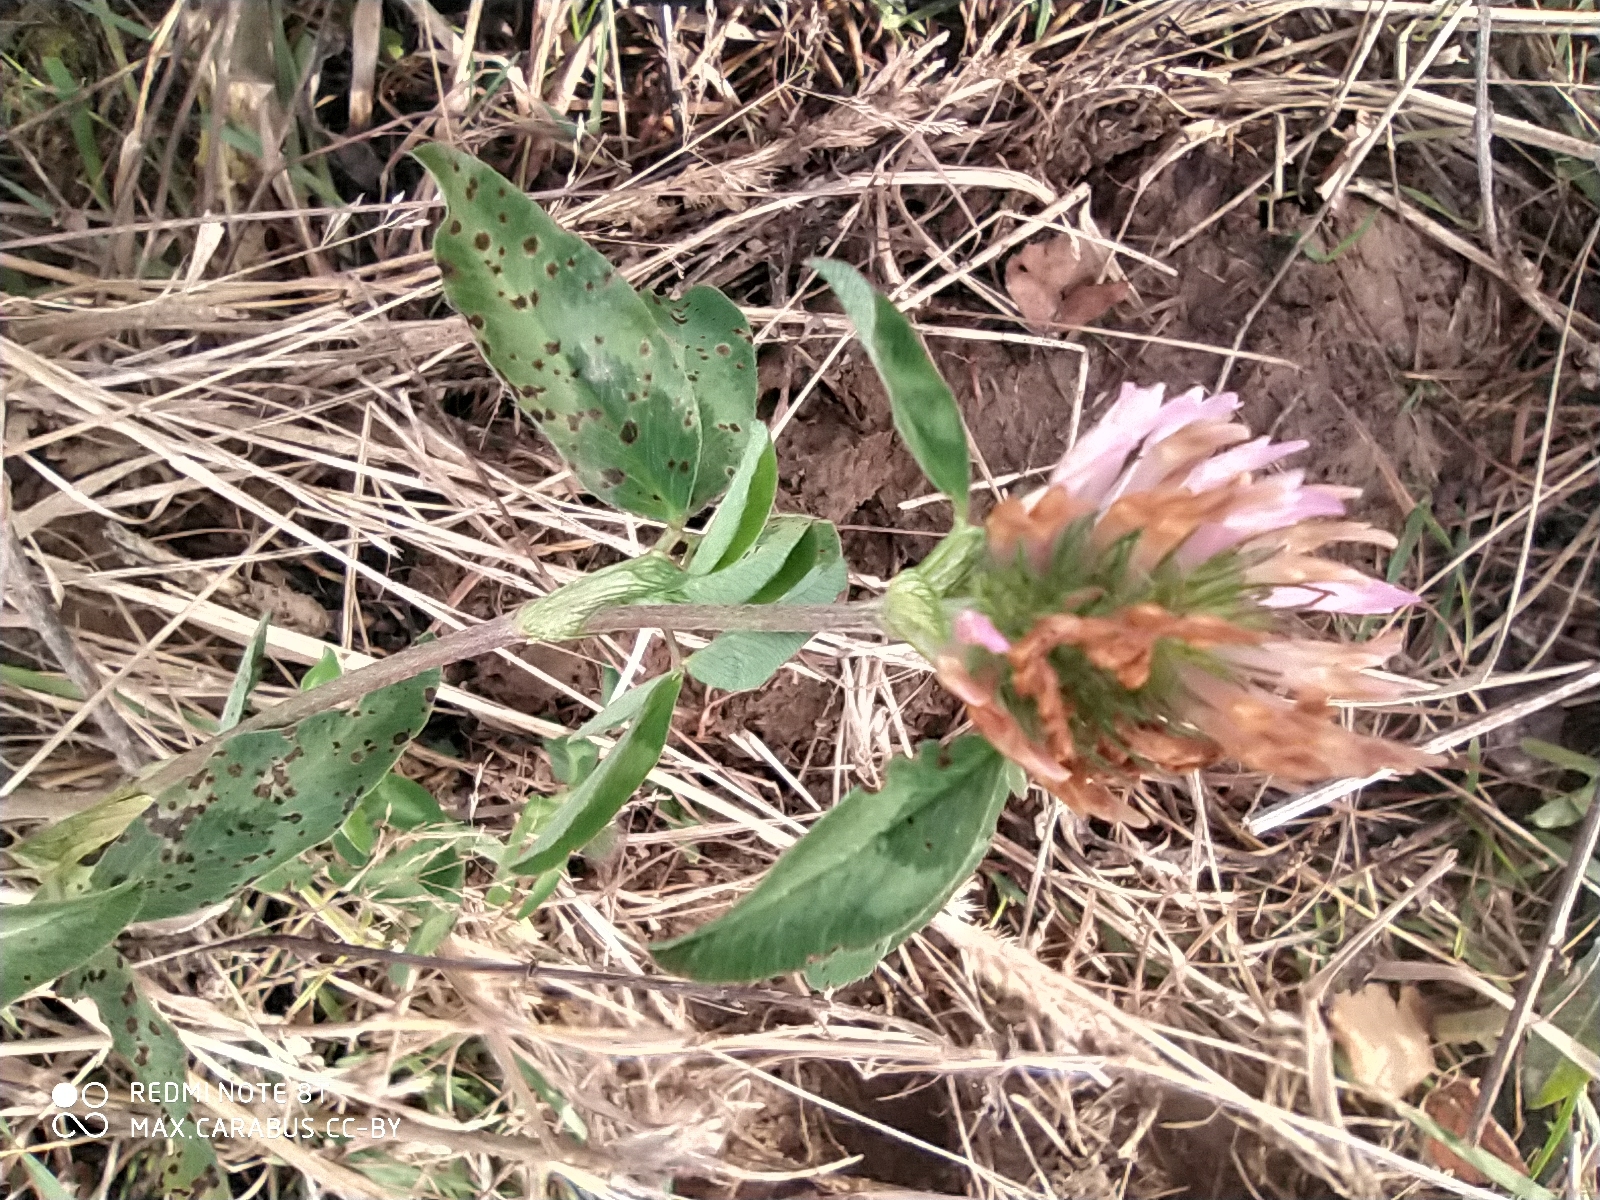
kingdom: Plantae
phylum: Tracheophyta
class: Magnoliopsida
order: Fabales
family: Fabaceae
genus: Trifolium
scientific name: Trifolium pratense
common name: Red clover
